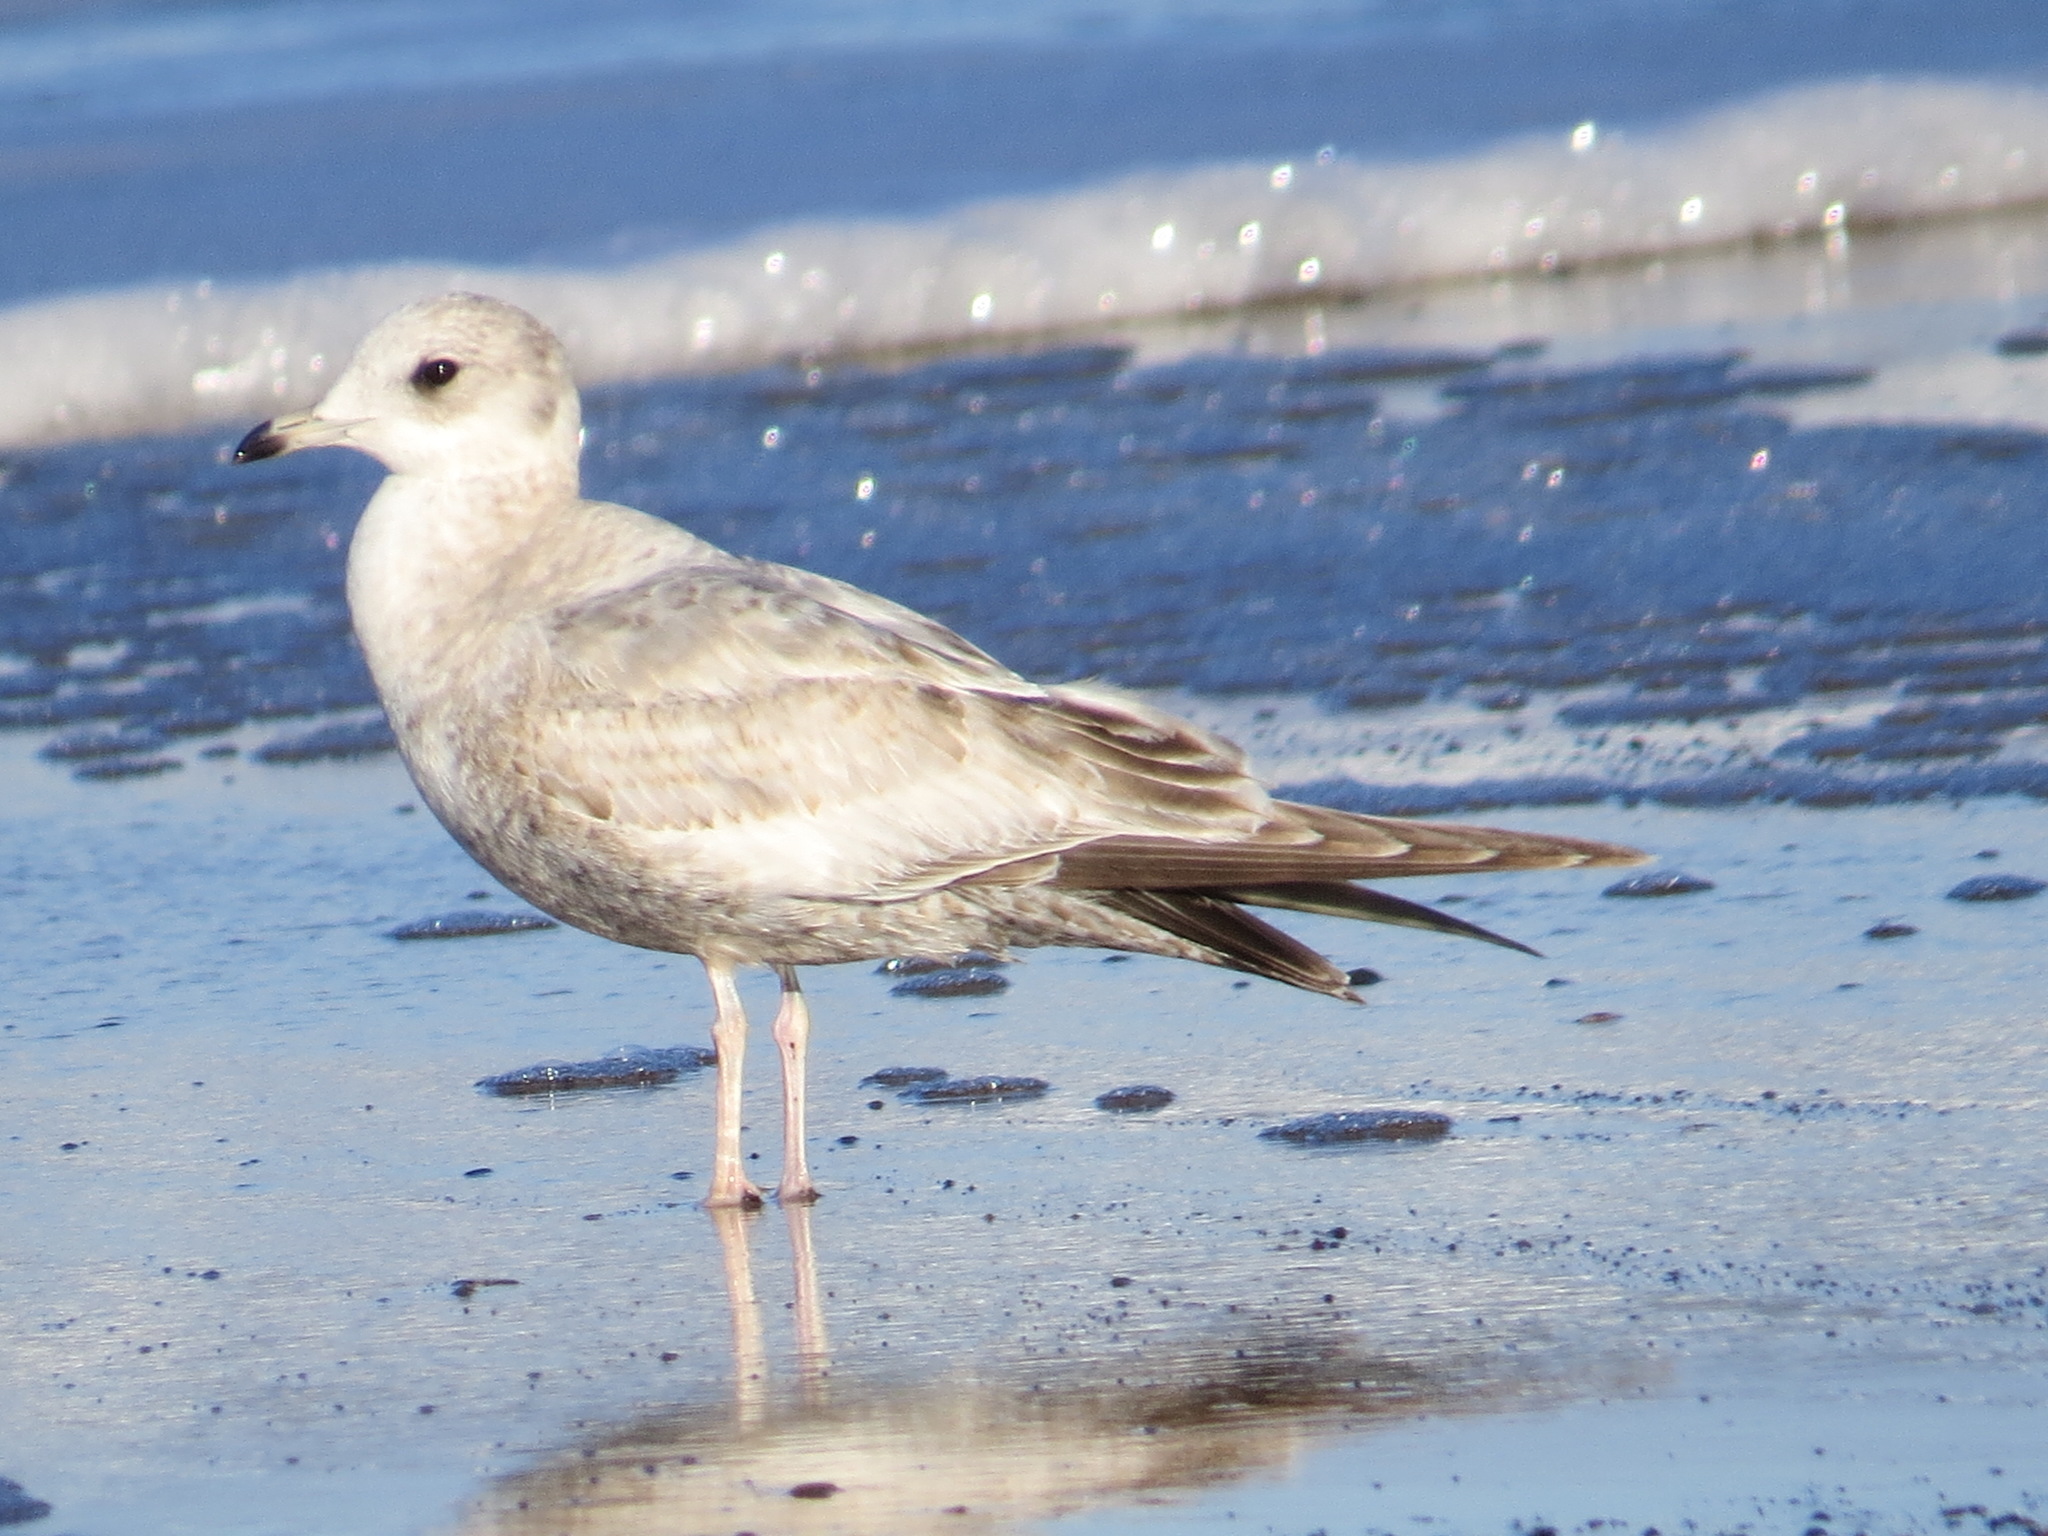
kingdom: Animalia
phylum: Chordata
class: Aves
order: Charadriiformes
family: Laridae
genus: Larus
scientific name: Larus brachyrhynchus
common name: Short-billed gull
